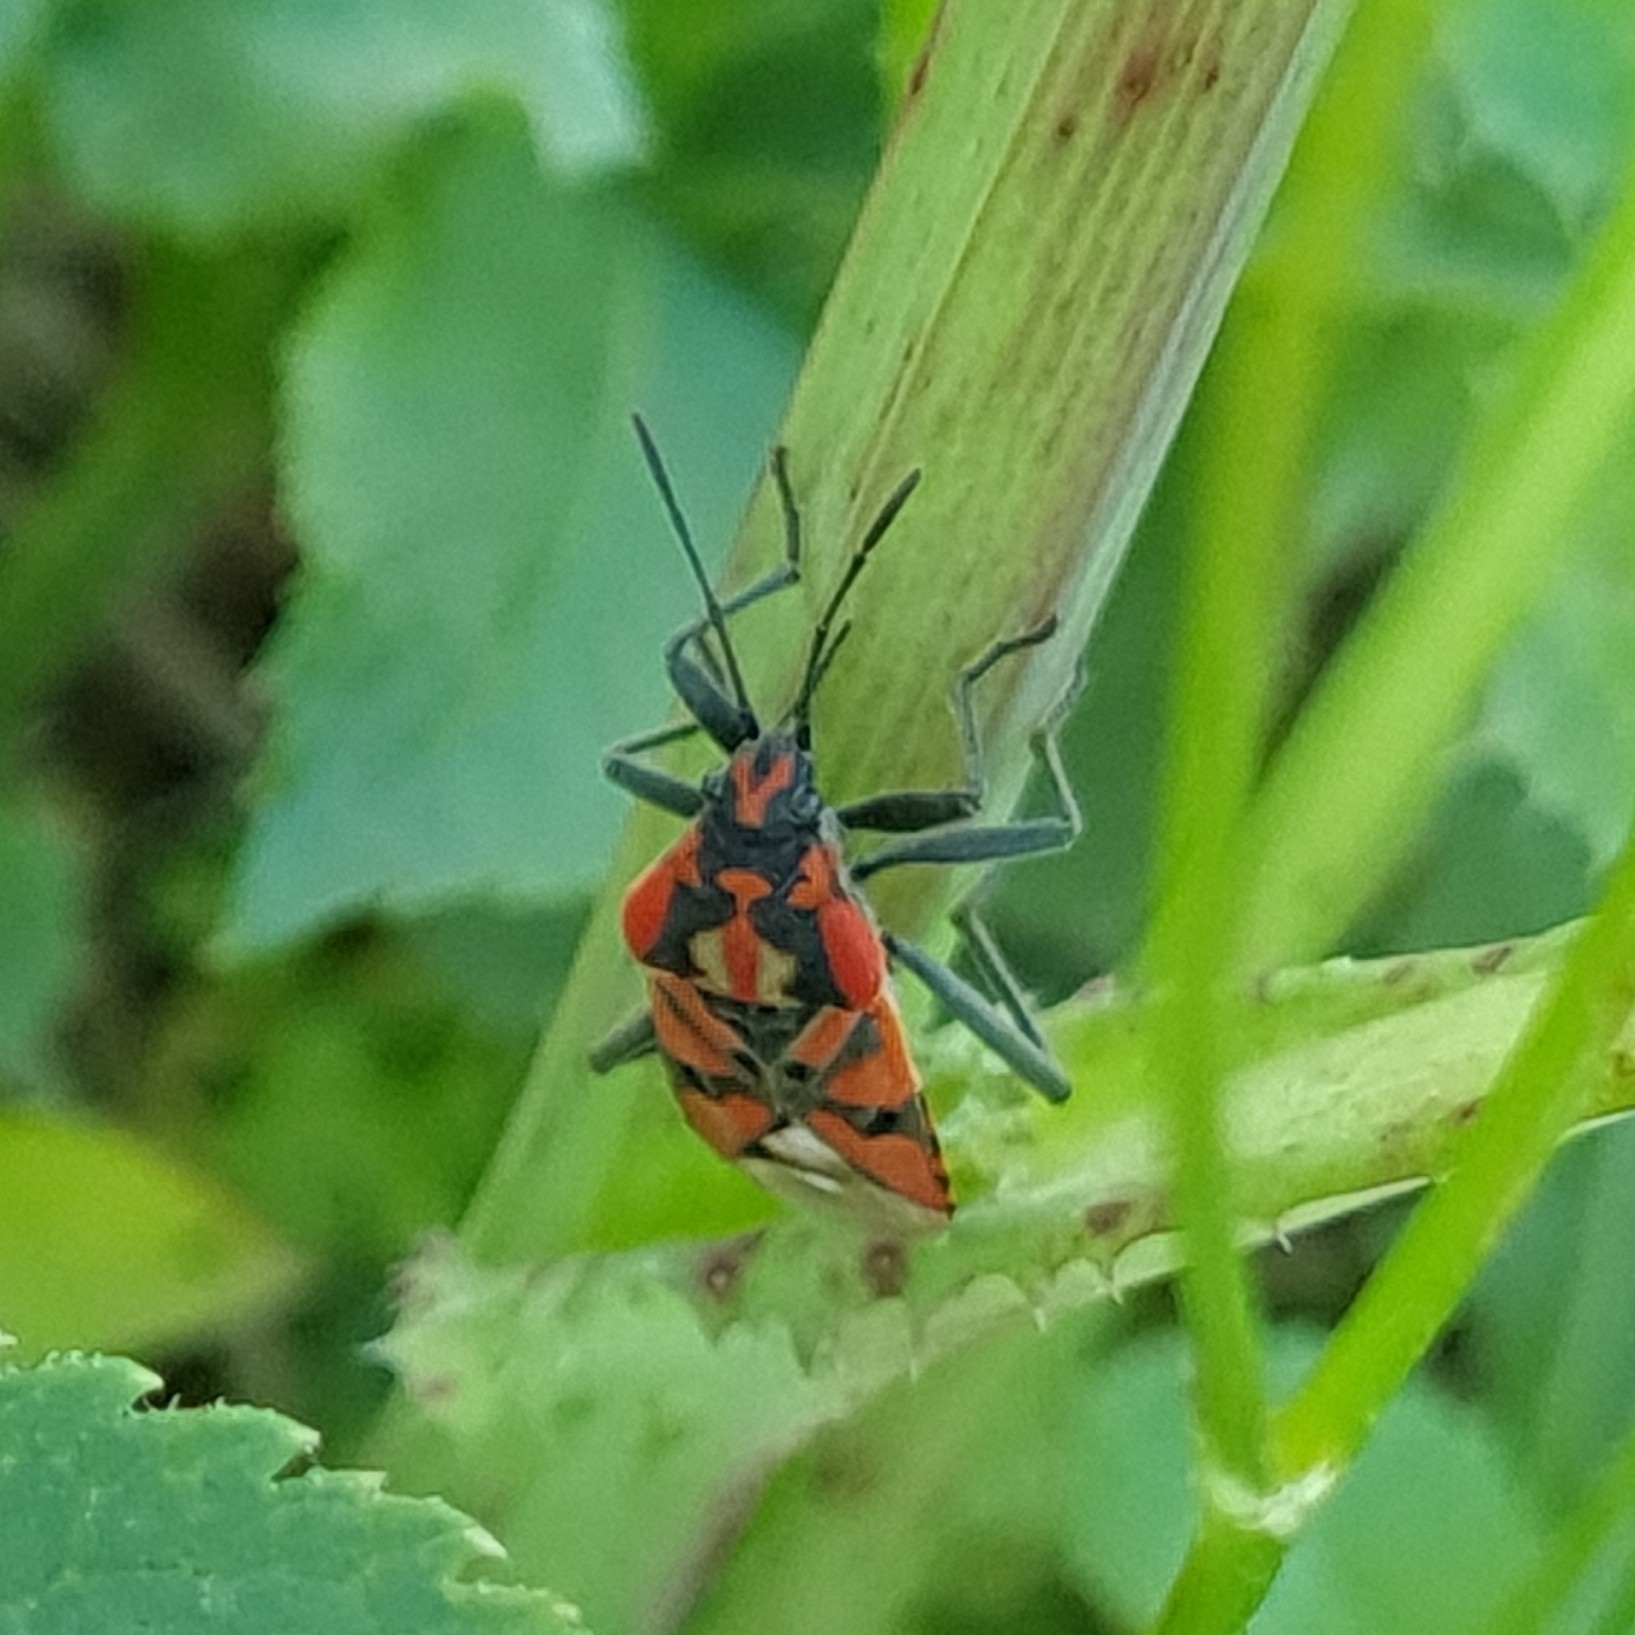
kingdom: Animalia
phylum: Arthropoda
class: Insecta
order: Hemiptera
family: Lygaeidae
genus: Spilostethus
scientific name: Spilostethus pandurus
